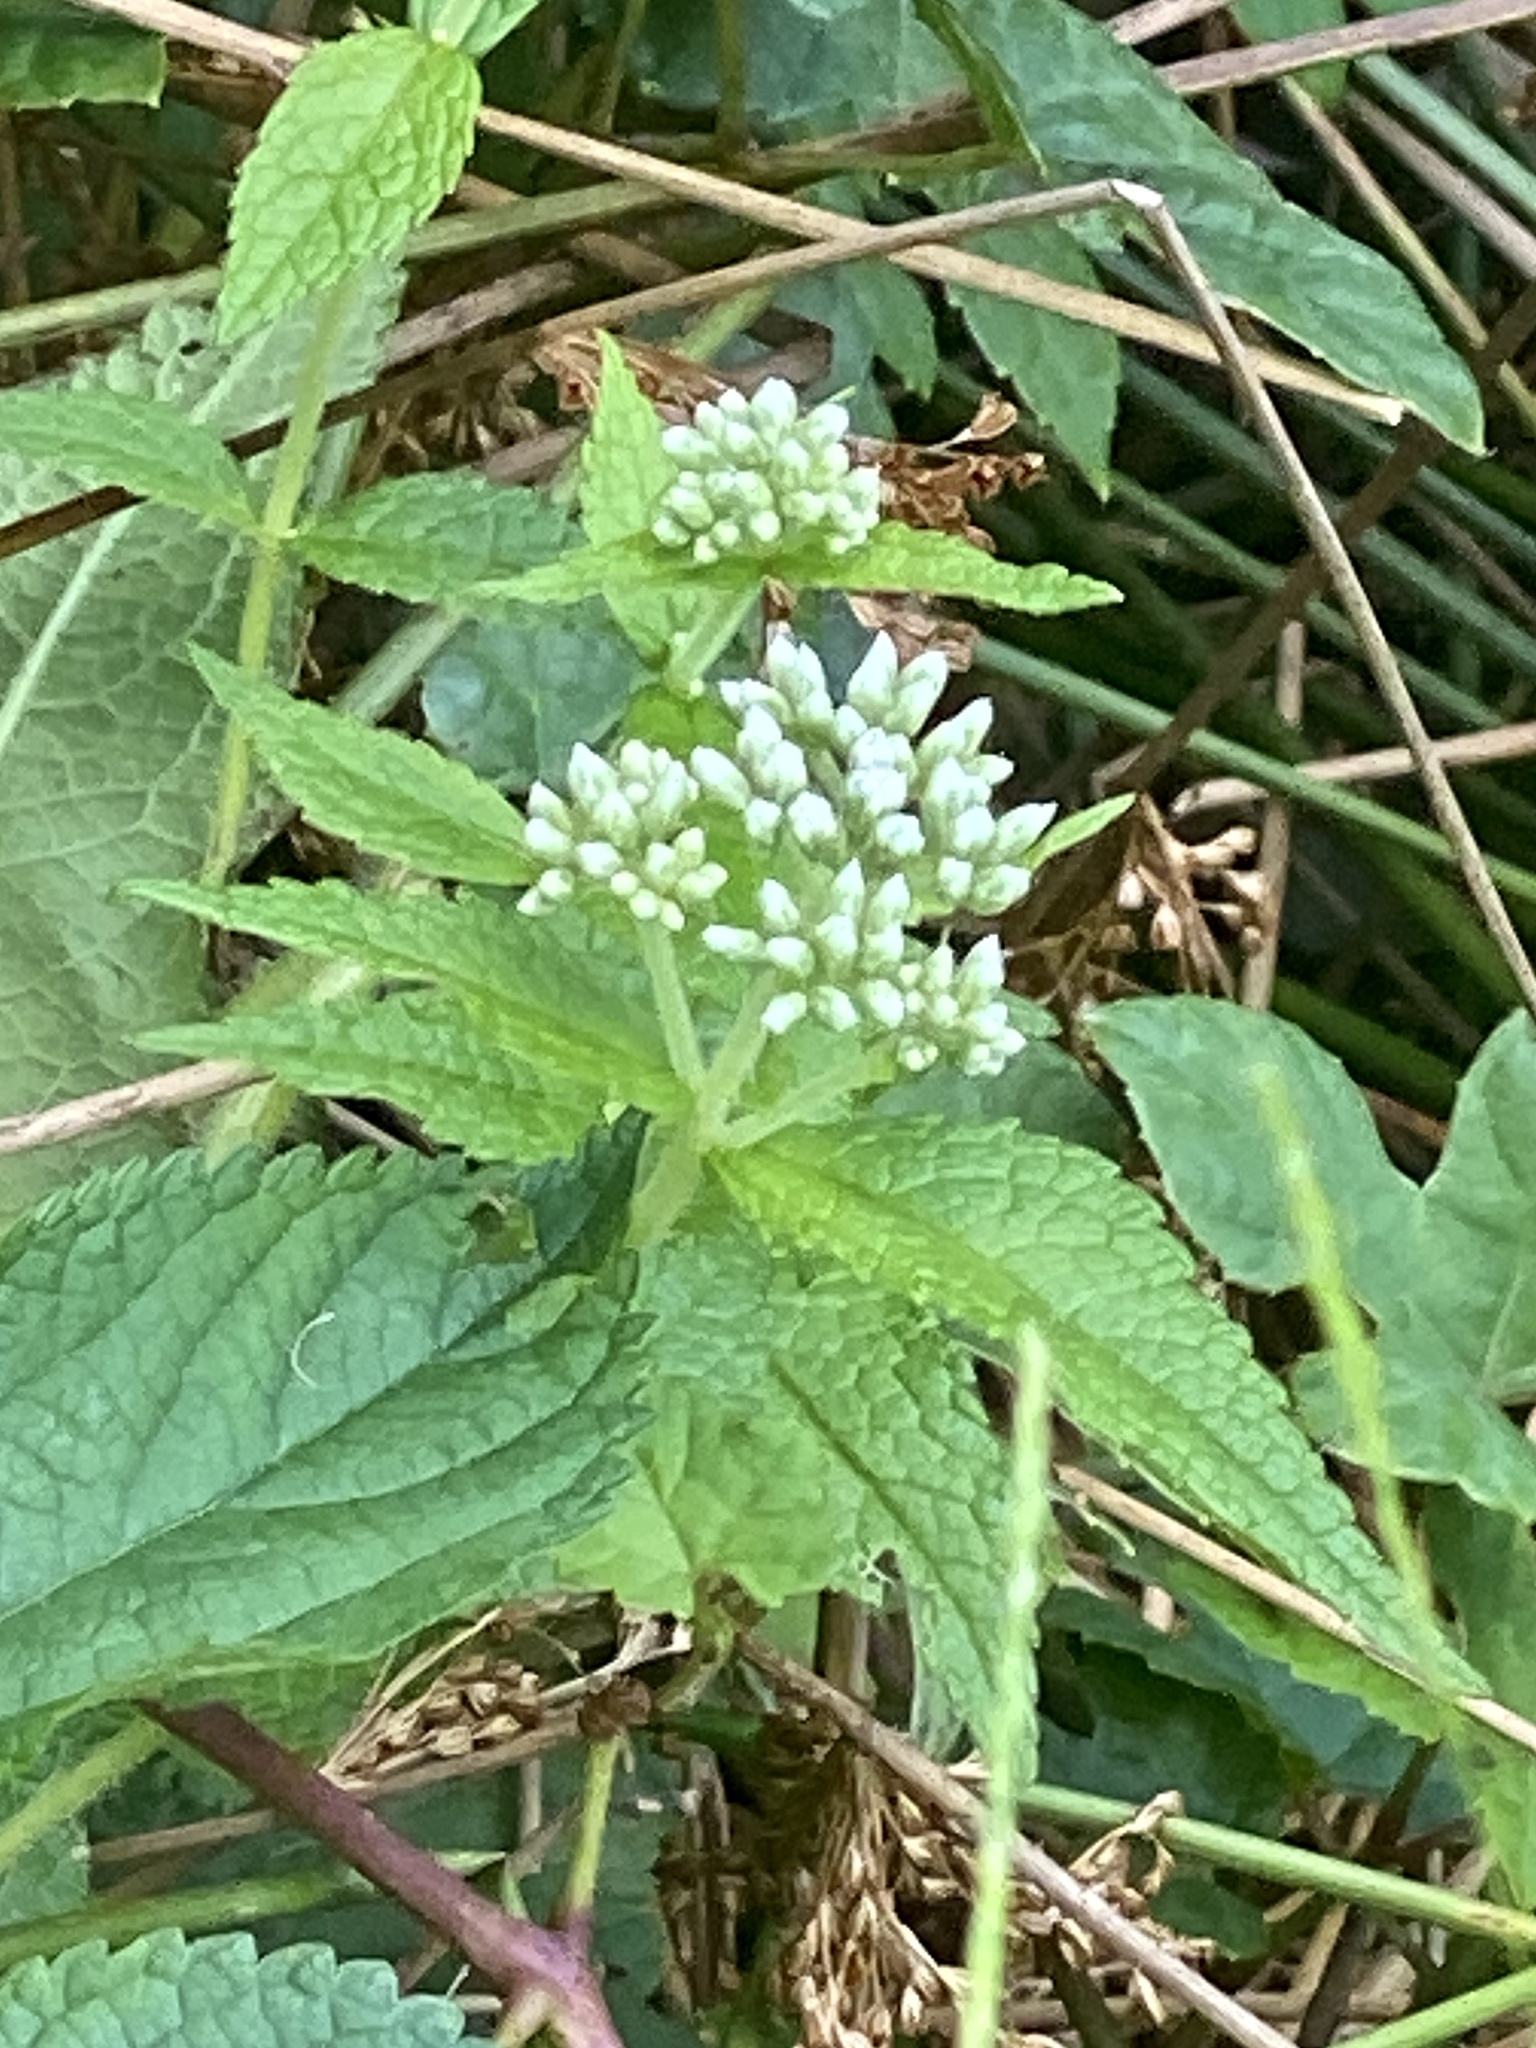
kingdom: Plantae
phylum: Tracheophyta
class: Magnoliopsida
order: Asterales
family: Asteraceae
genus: Eupatorium
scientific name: Eupatorium perfoliatum
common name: Boneset
